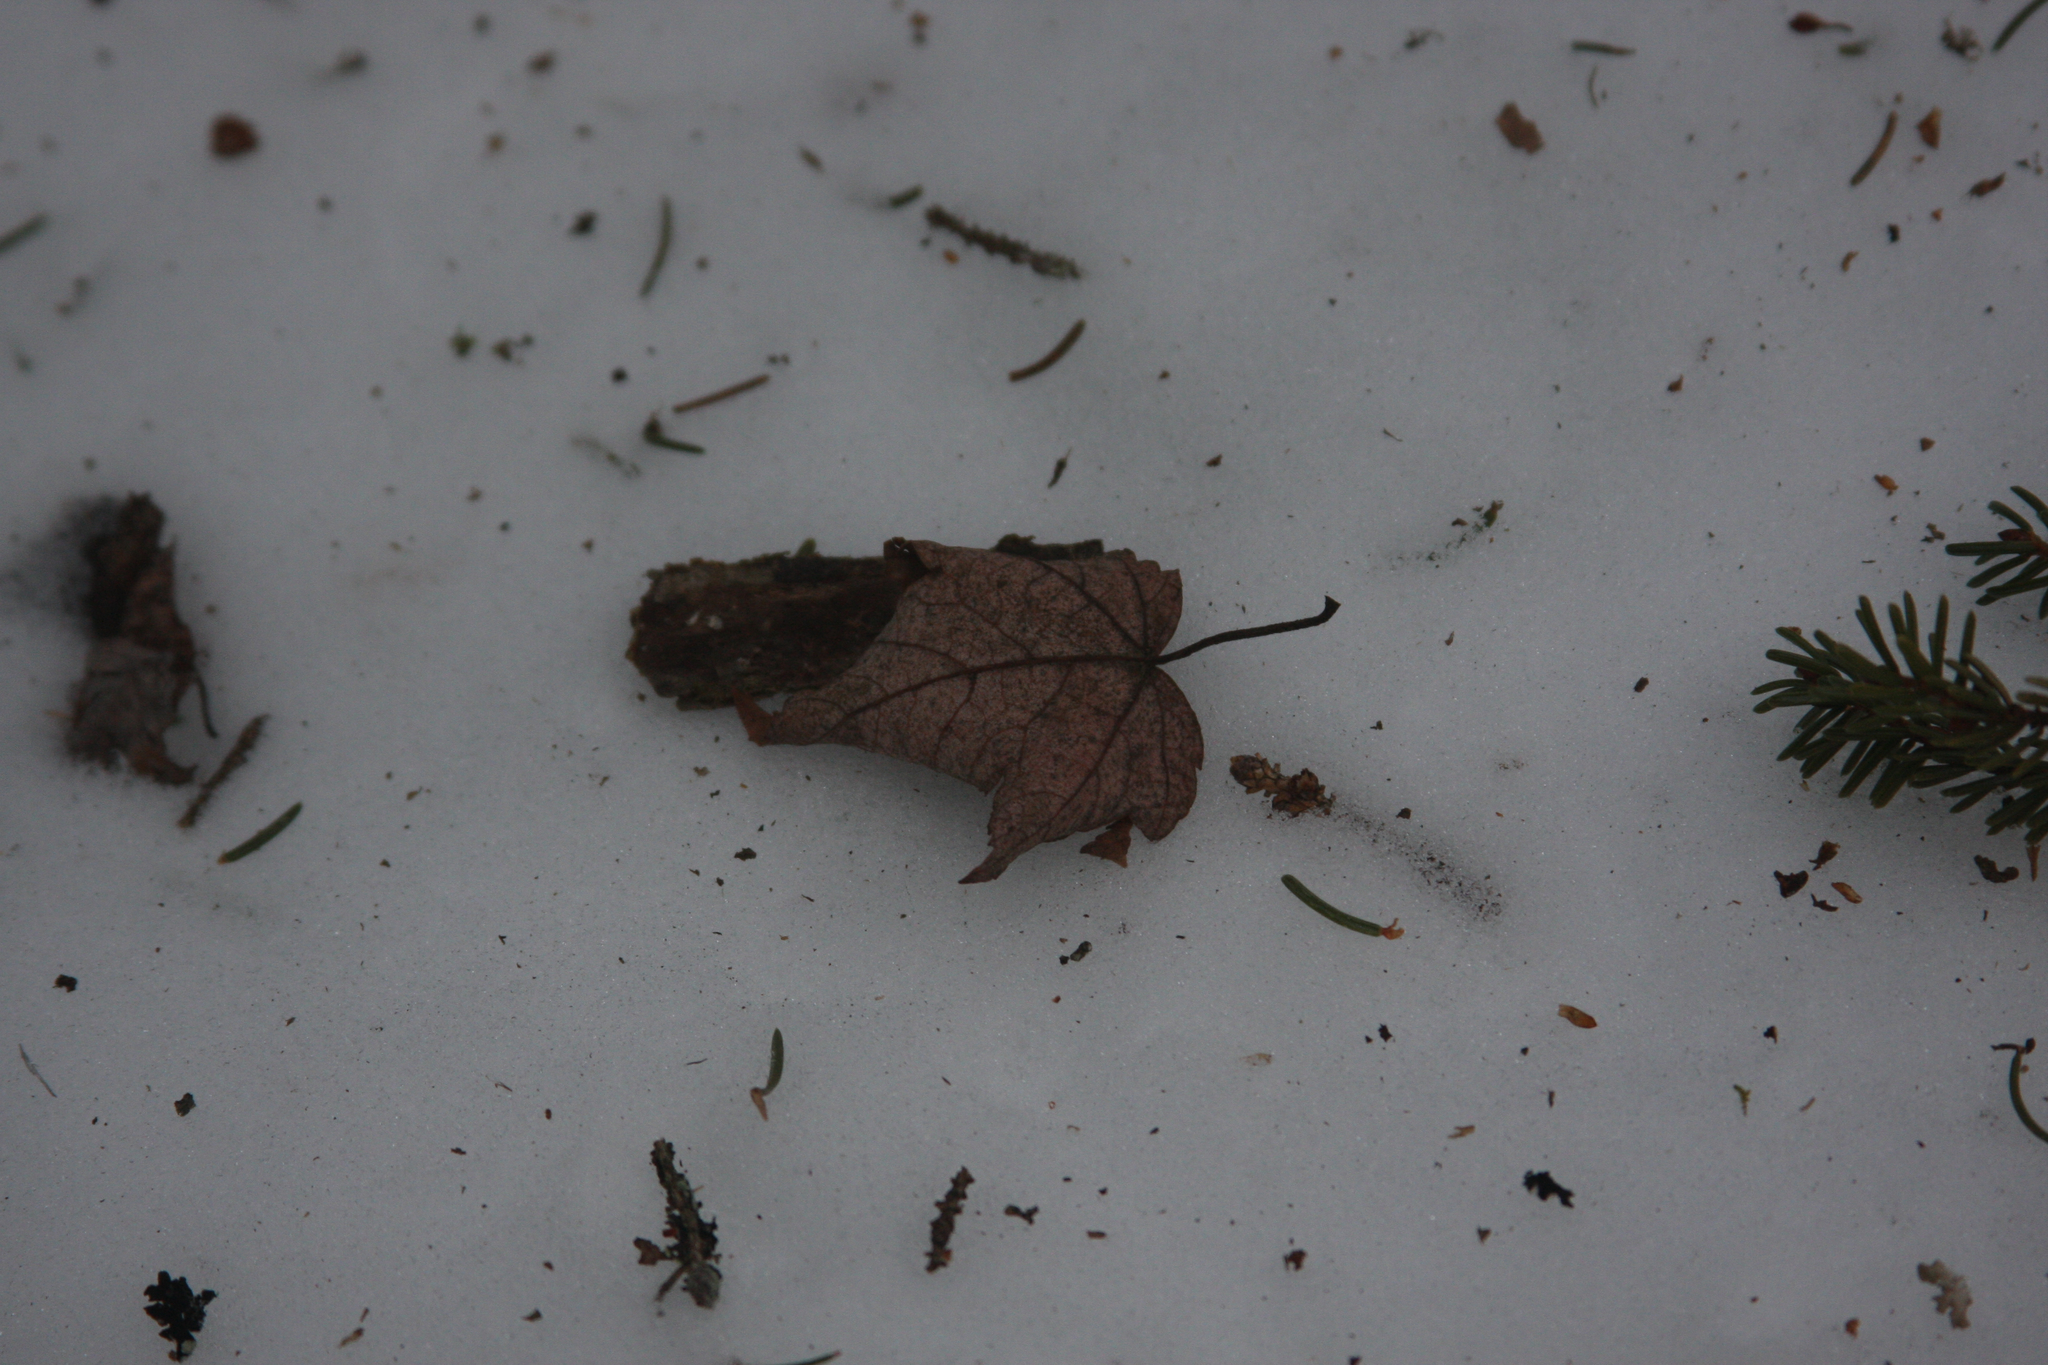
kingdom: Plantae
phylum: Tracheophyta
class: Magnoliopsida
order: Sapindales
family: Sapindaceae
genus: Acer
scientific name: Acer rubrum
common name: Red maple
